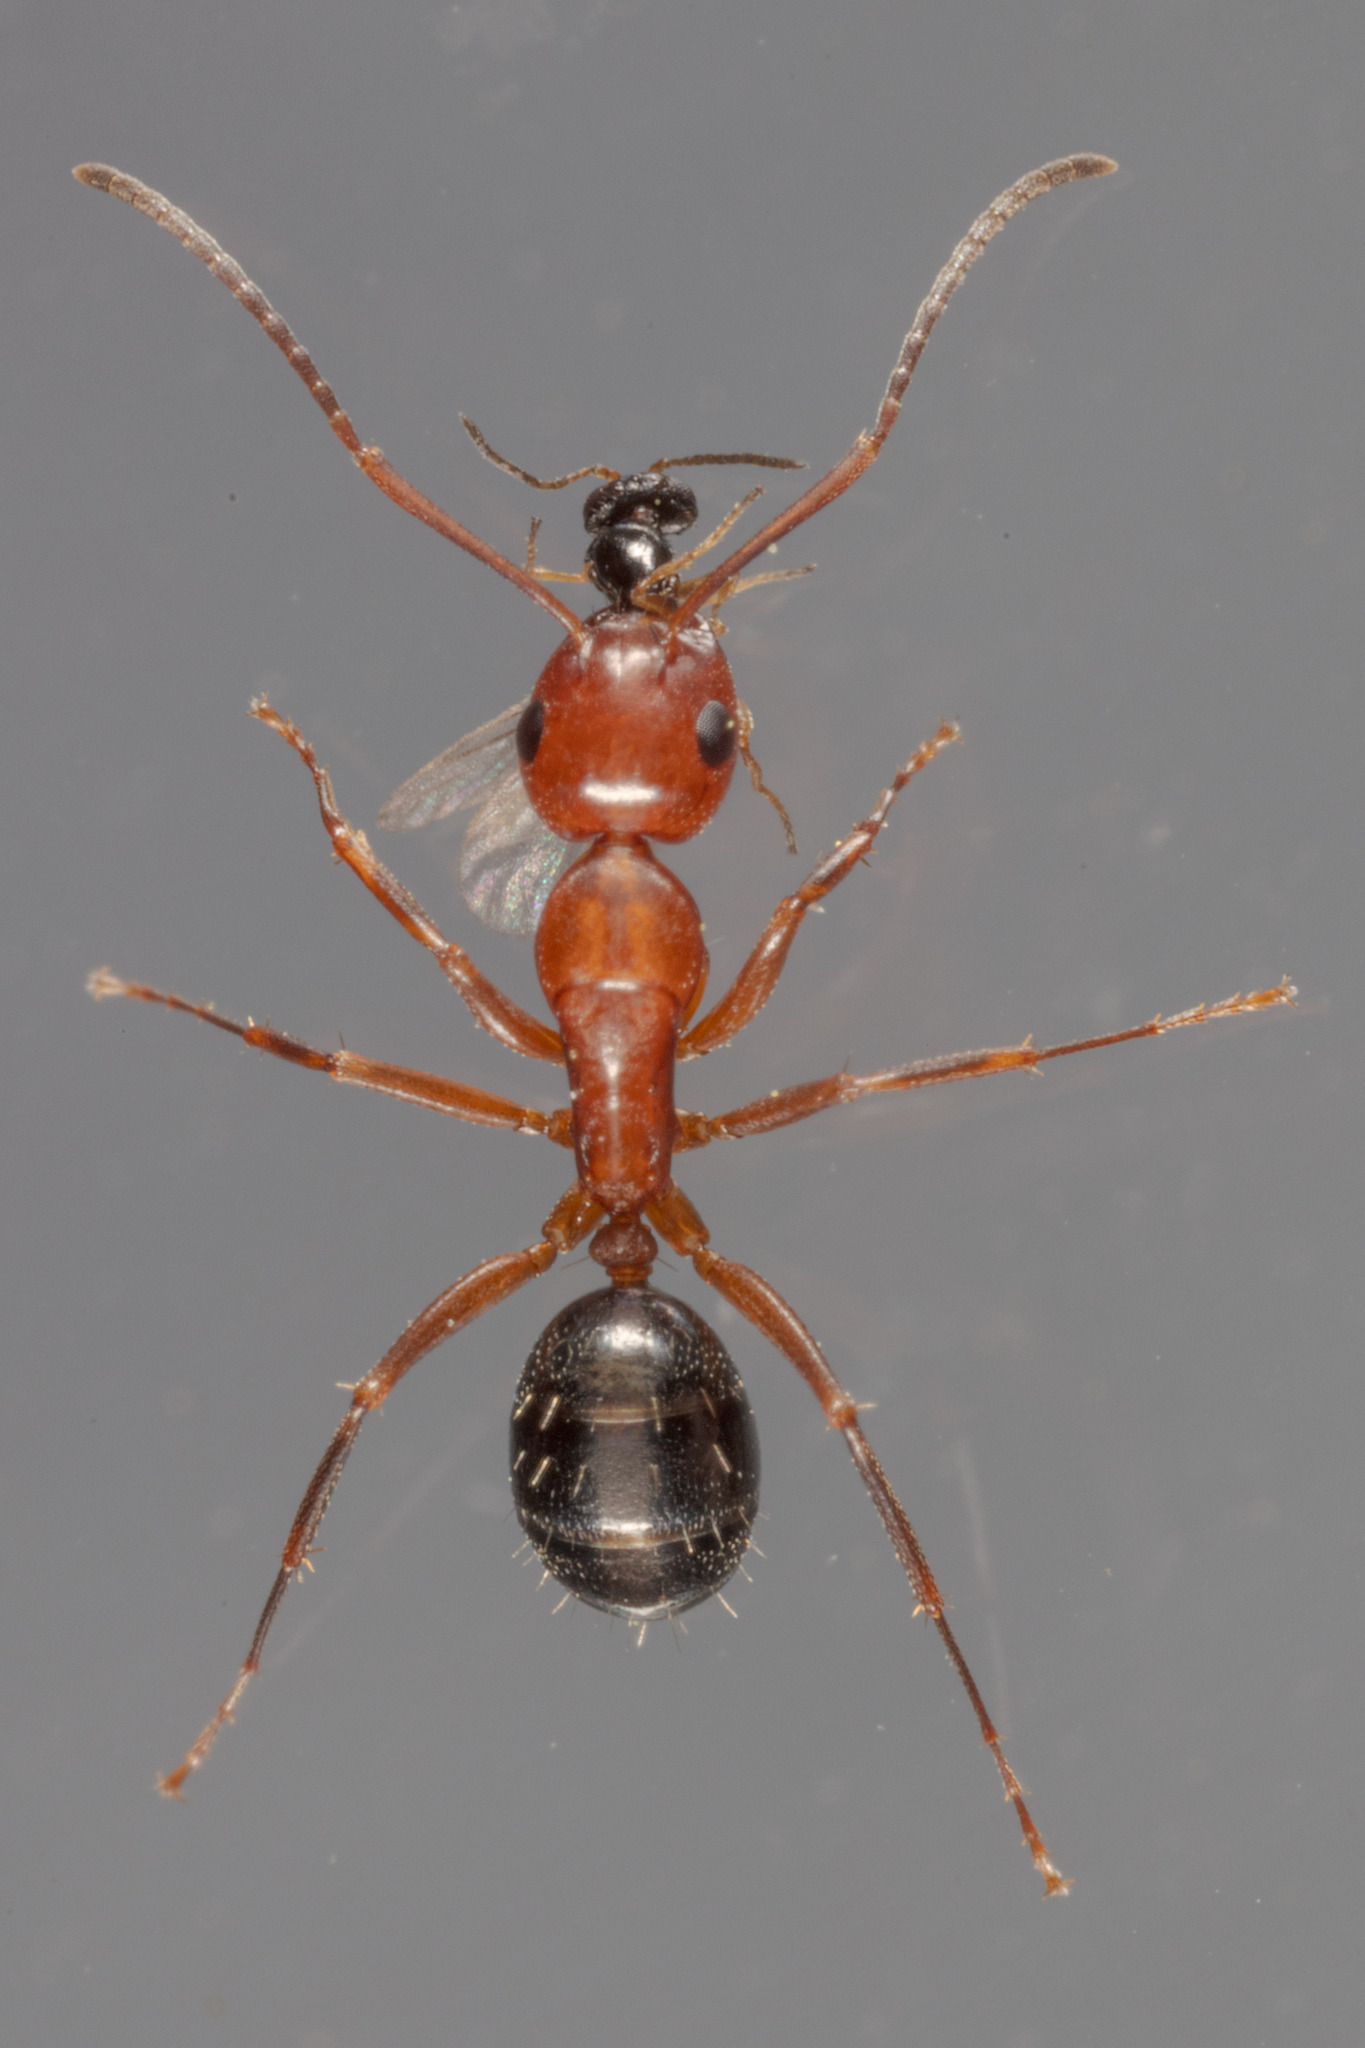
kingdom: Animalia
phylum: Arthropoda
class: Insecta
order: Hymenoptera
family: Formicidae
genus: Camponotus
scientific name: Camponotus decipiens
